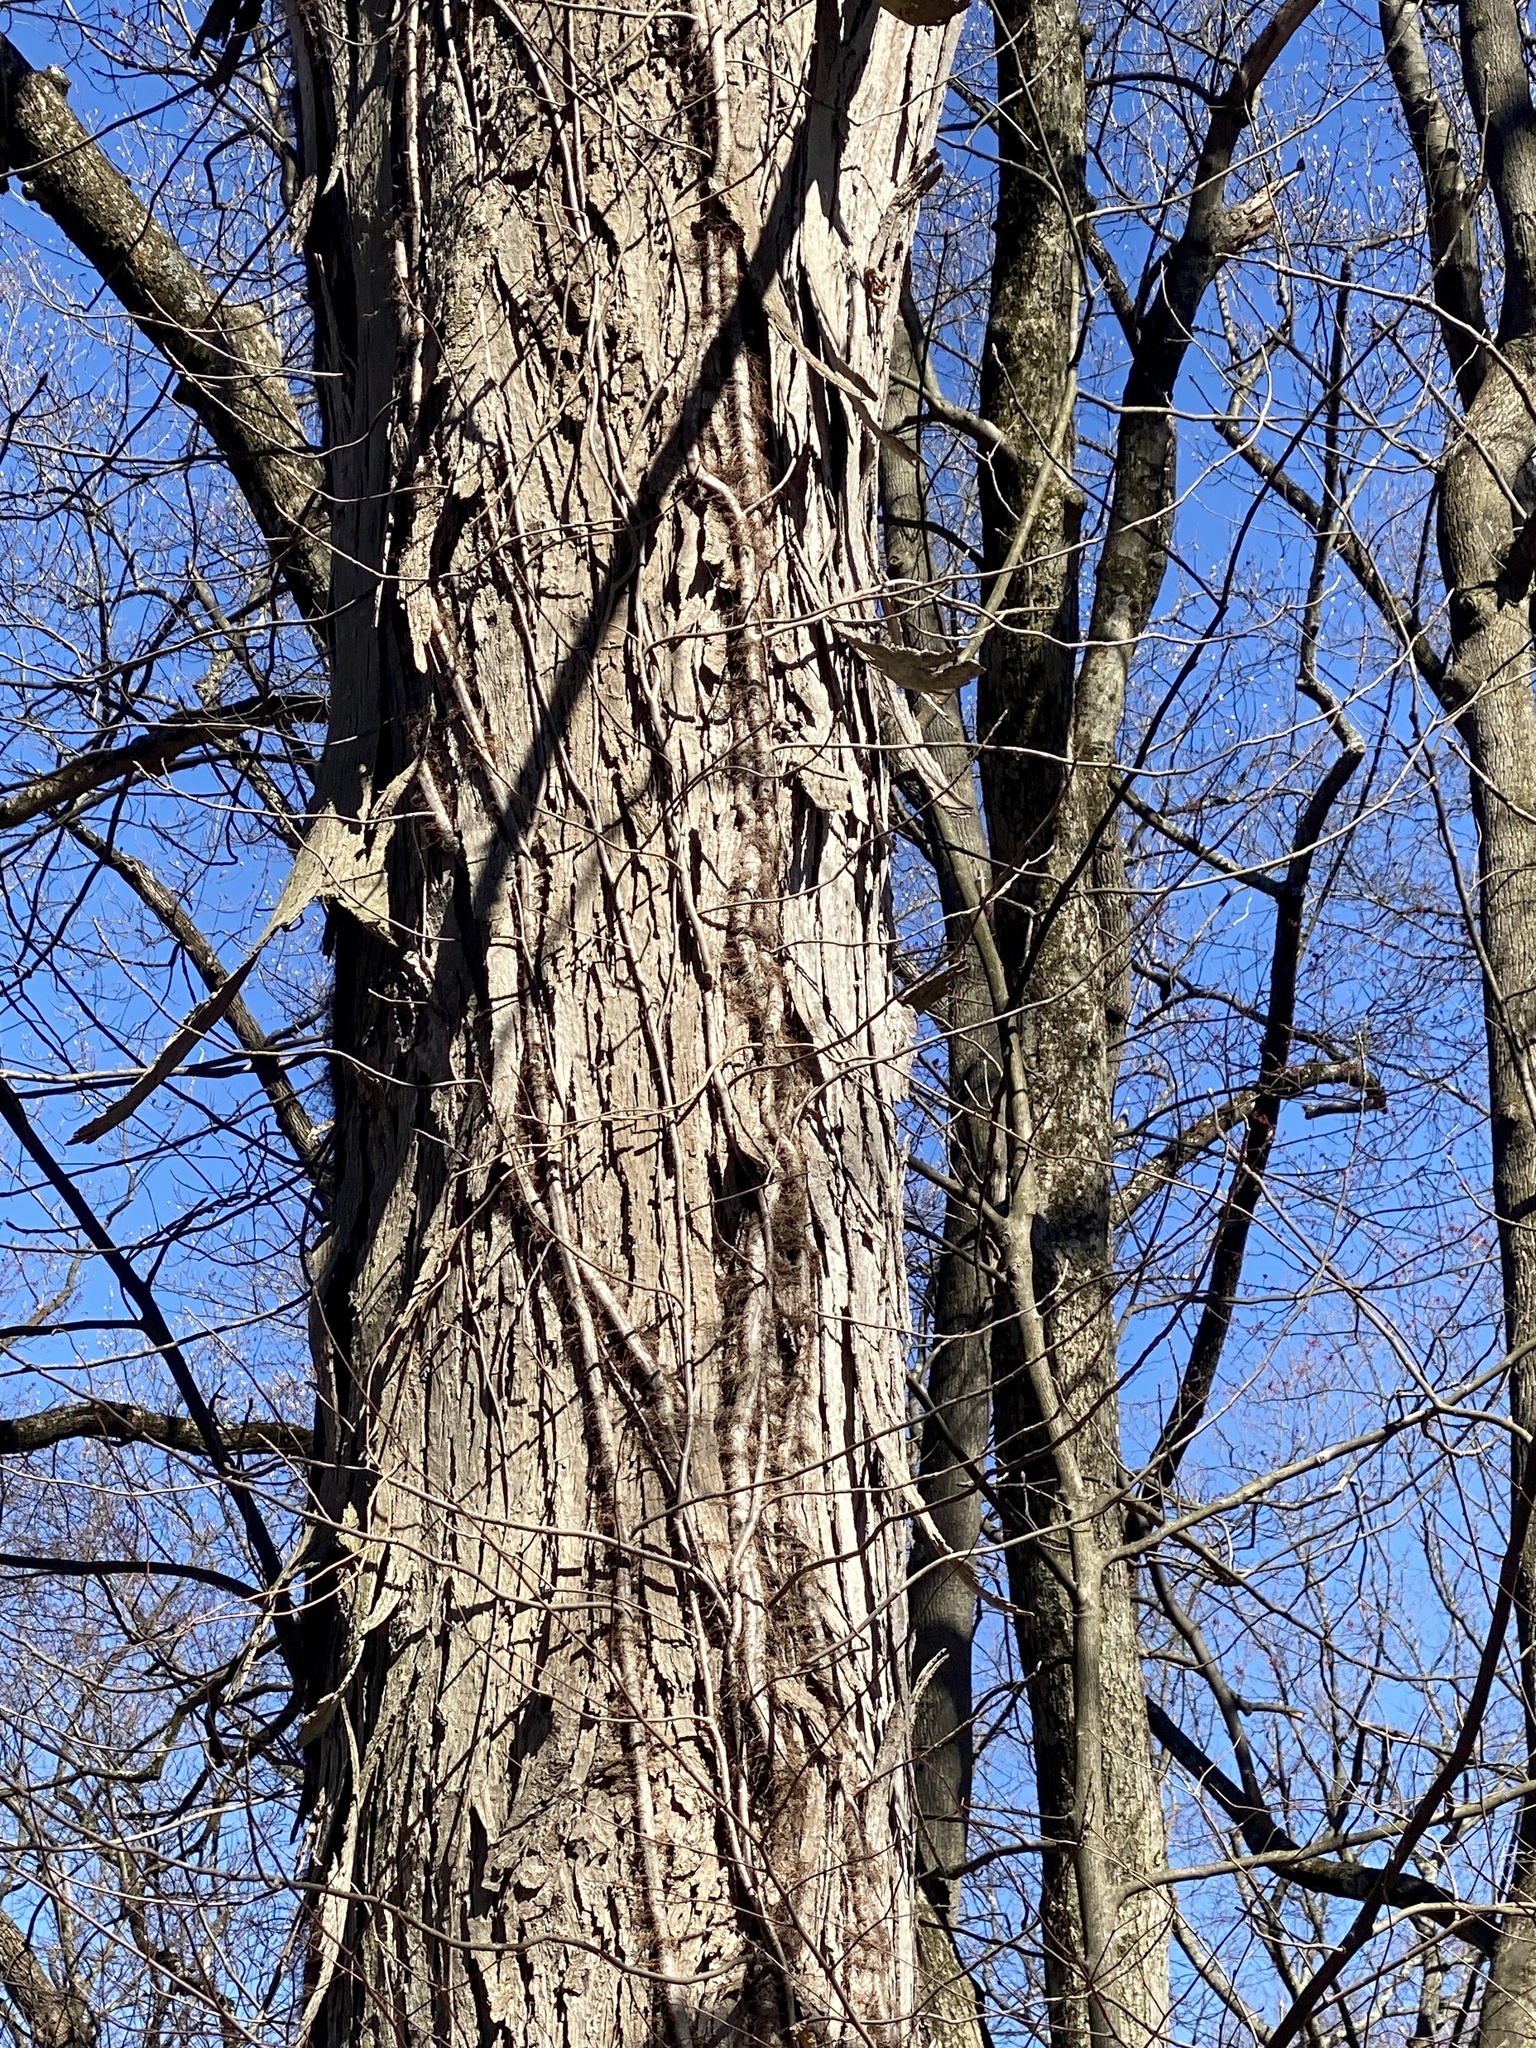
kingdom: Plantae
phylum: Tracheophyta
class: Magnoliopsida
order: Fagales
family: Juglandaceae
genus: Carya
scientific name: Carya ovata
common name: Shagbark hickory
